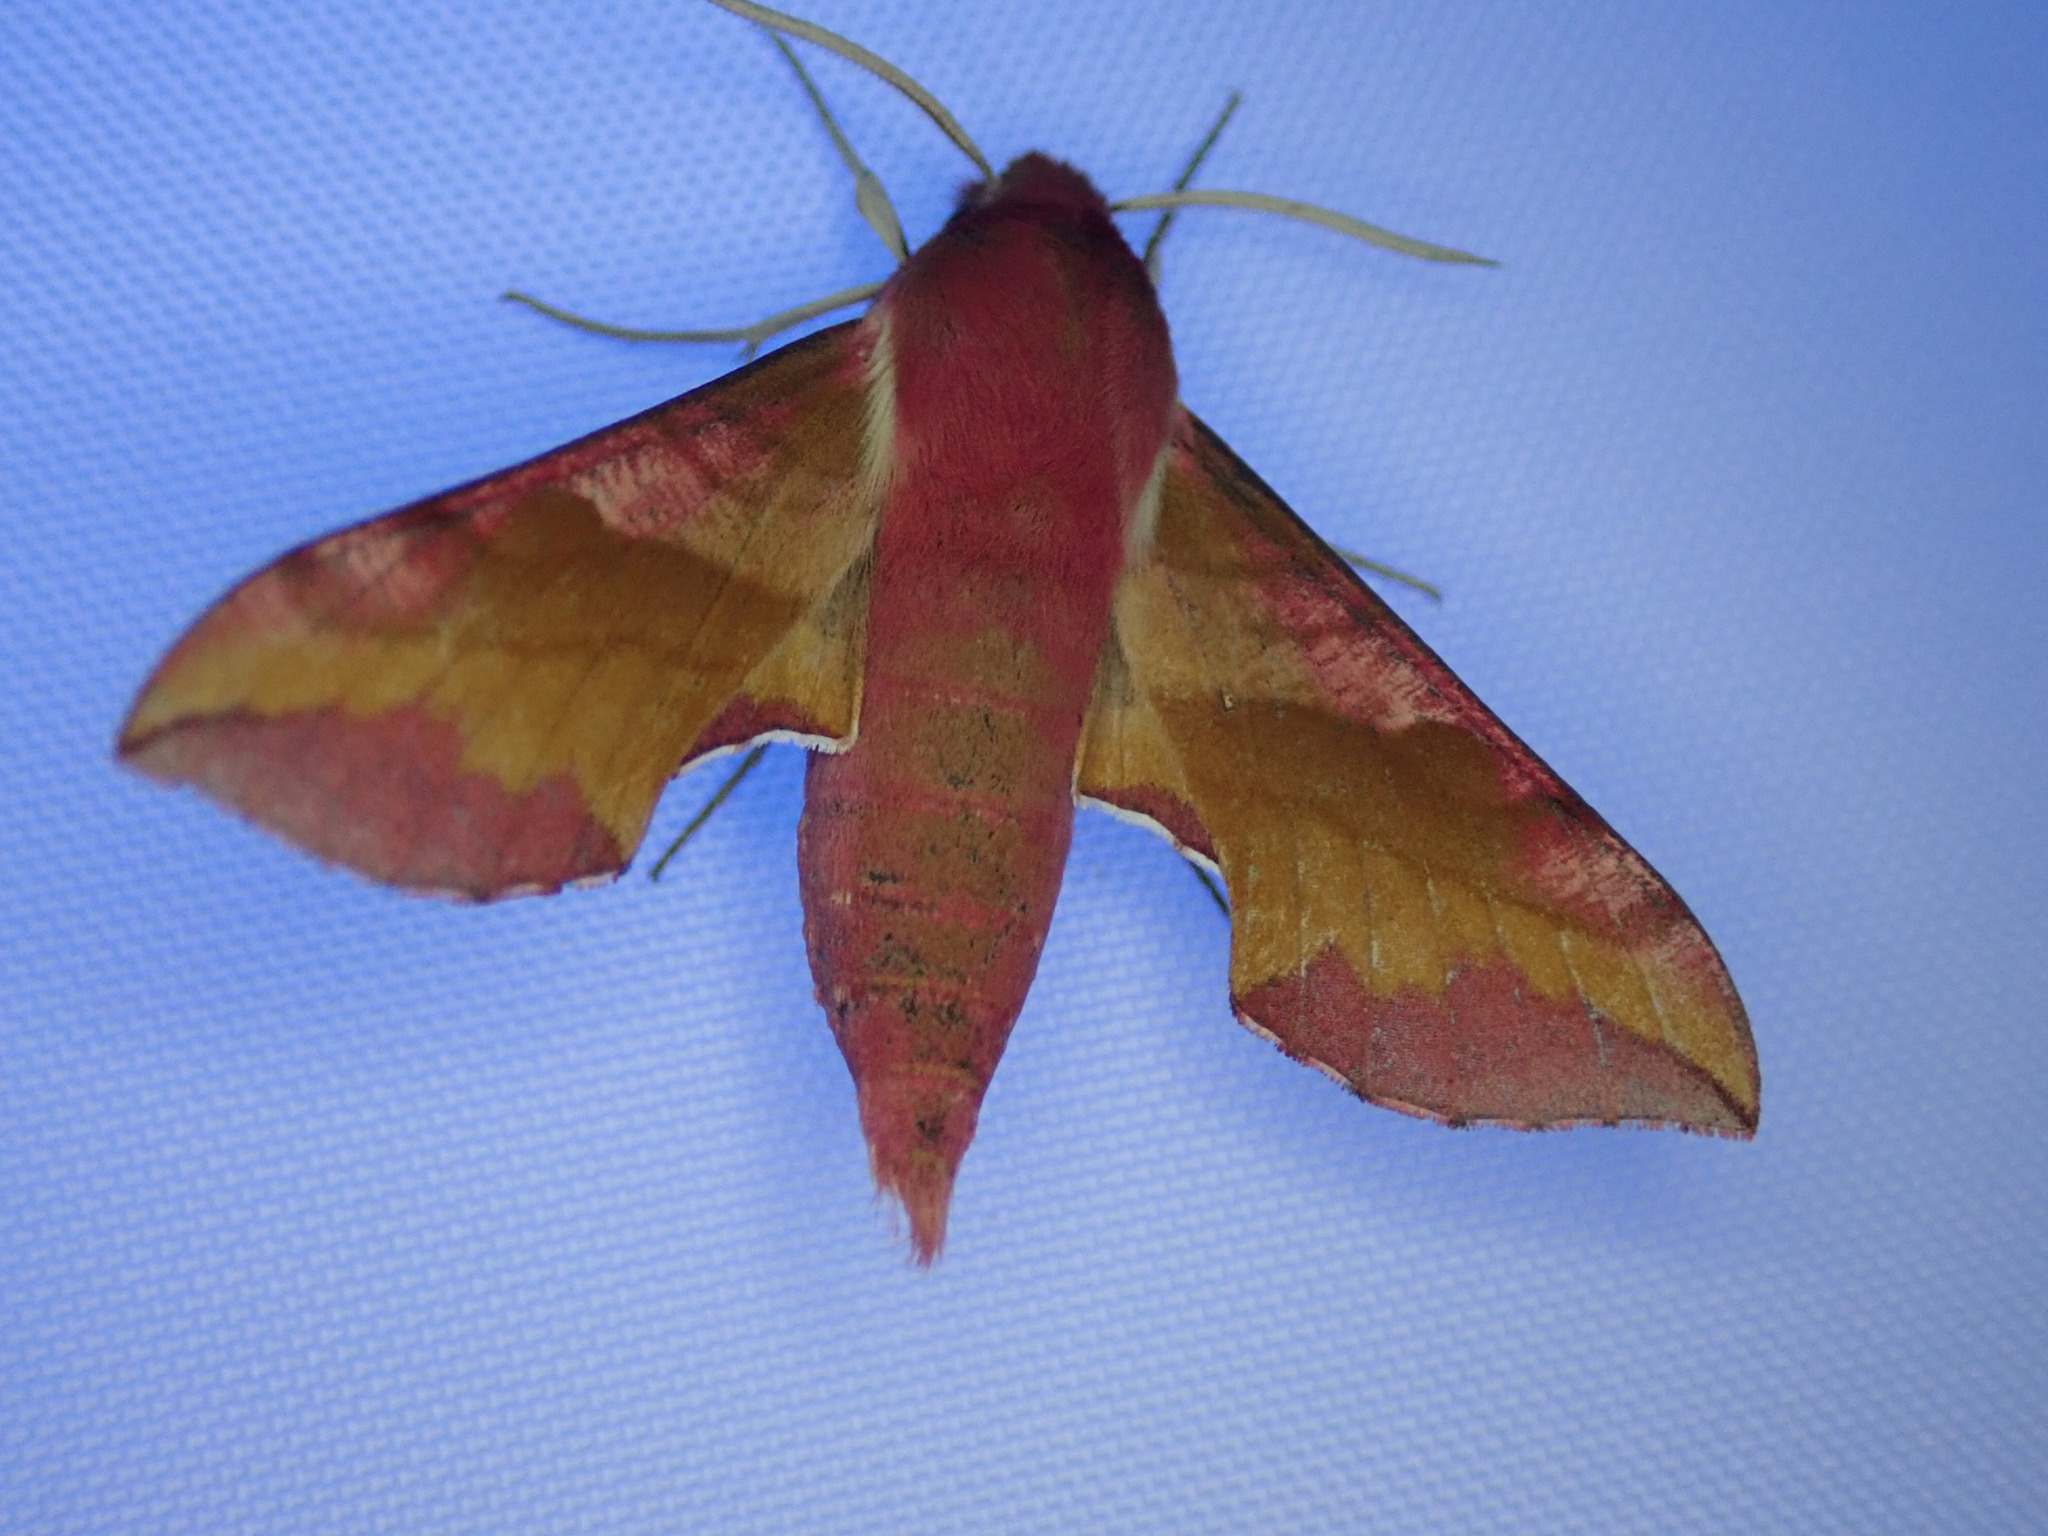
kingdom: Animalia
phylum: Arthropoda
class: Insecta
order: Lepidoptera
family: Sphingidae
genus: Deilephila
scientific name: Deilephila porcellus
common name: Small elephant hawk-moth
